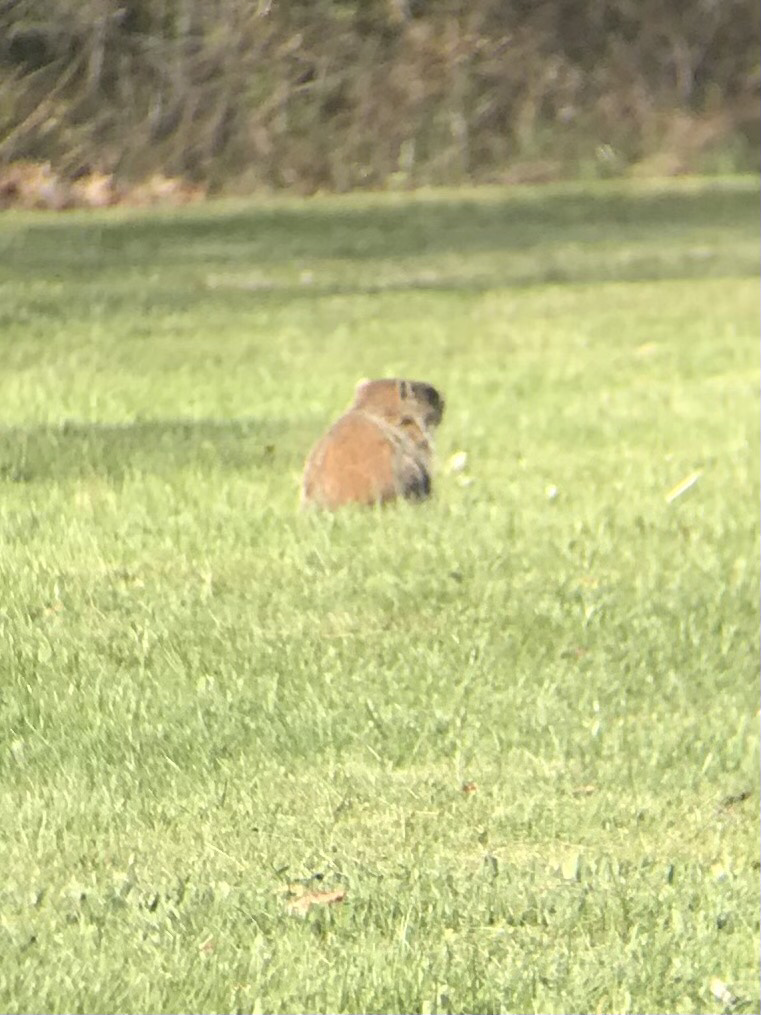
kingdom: Animalia
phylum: Chordata
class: Mammalia
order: Rodentia
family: Sciuridae
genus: Marmota
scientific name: Marmota monax
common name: Groundhog
